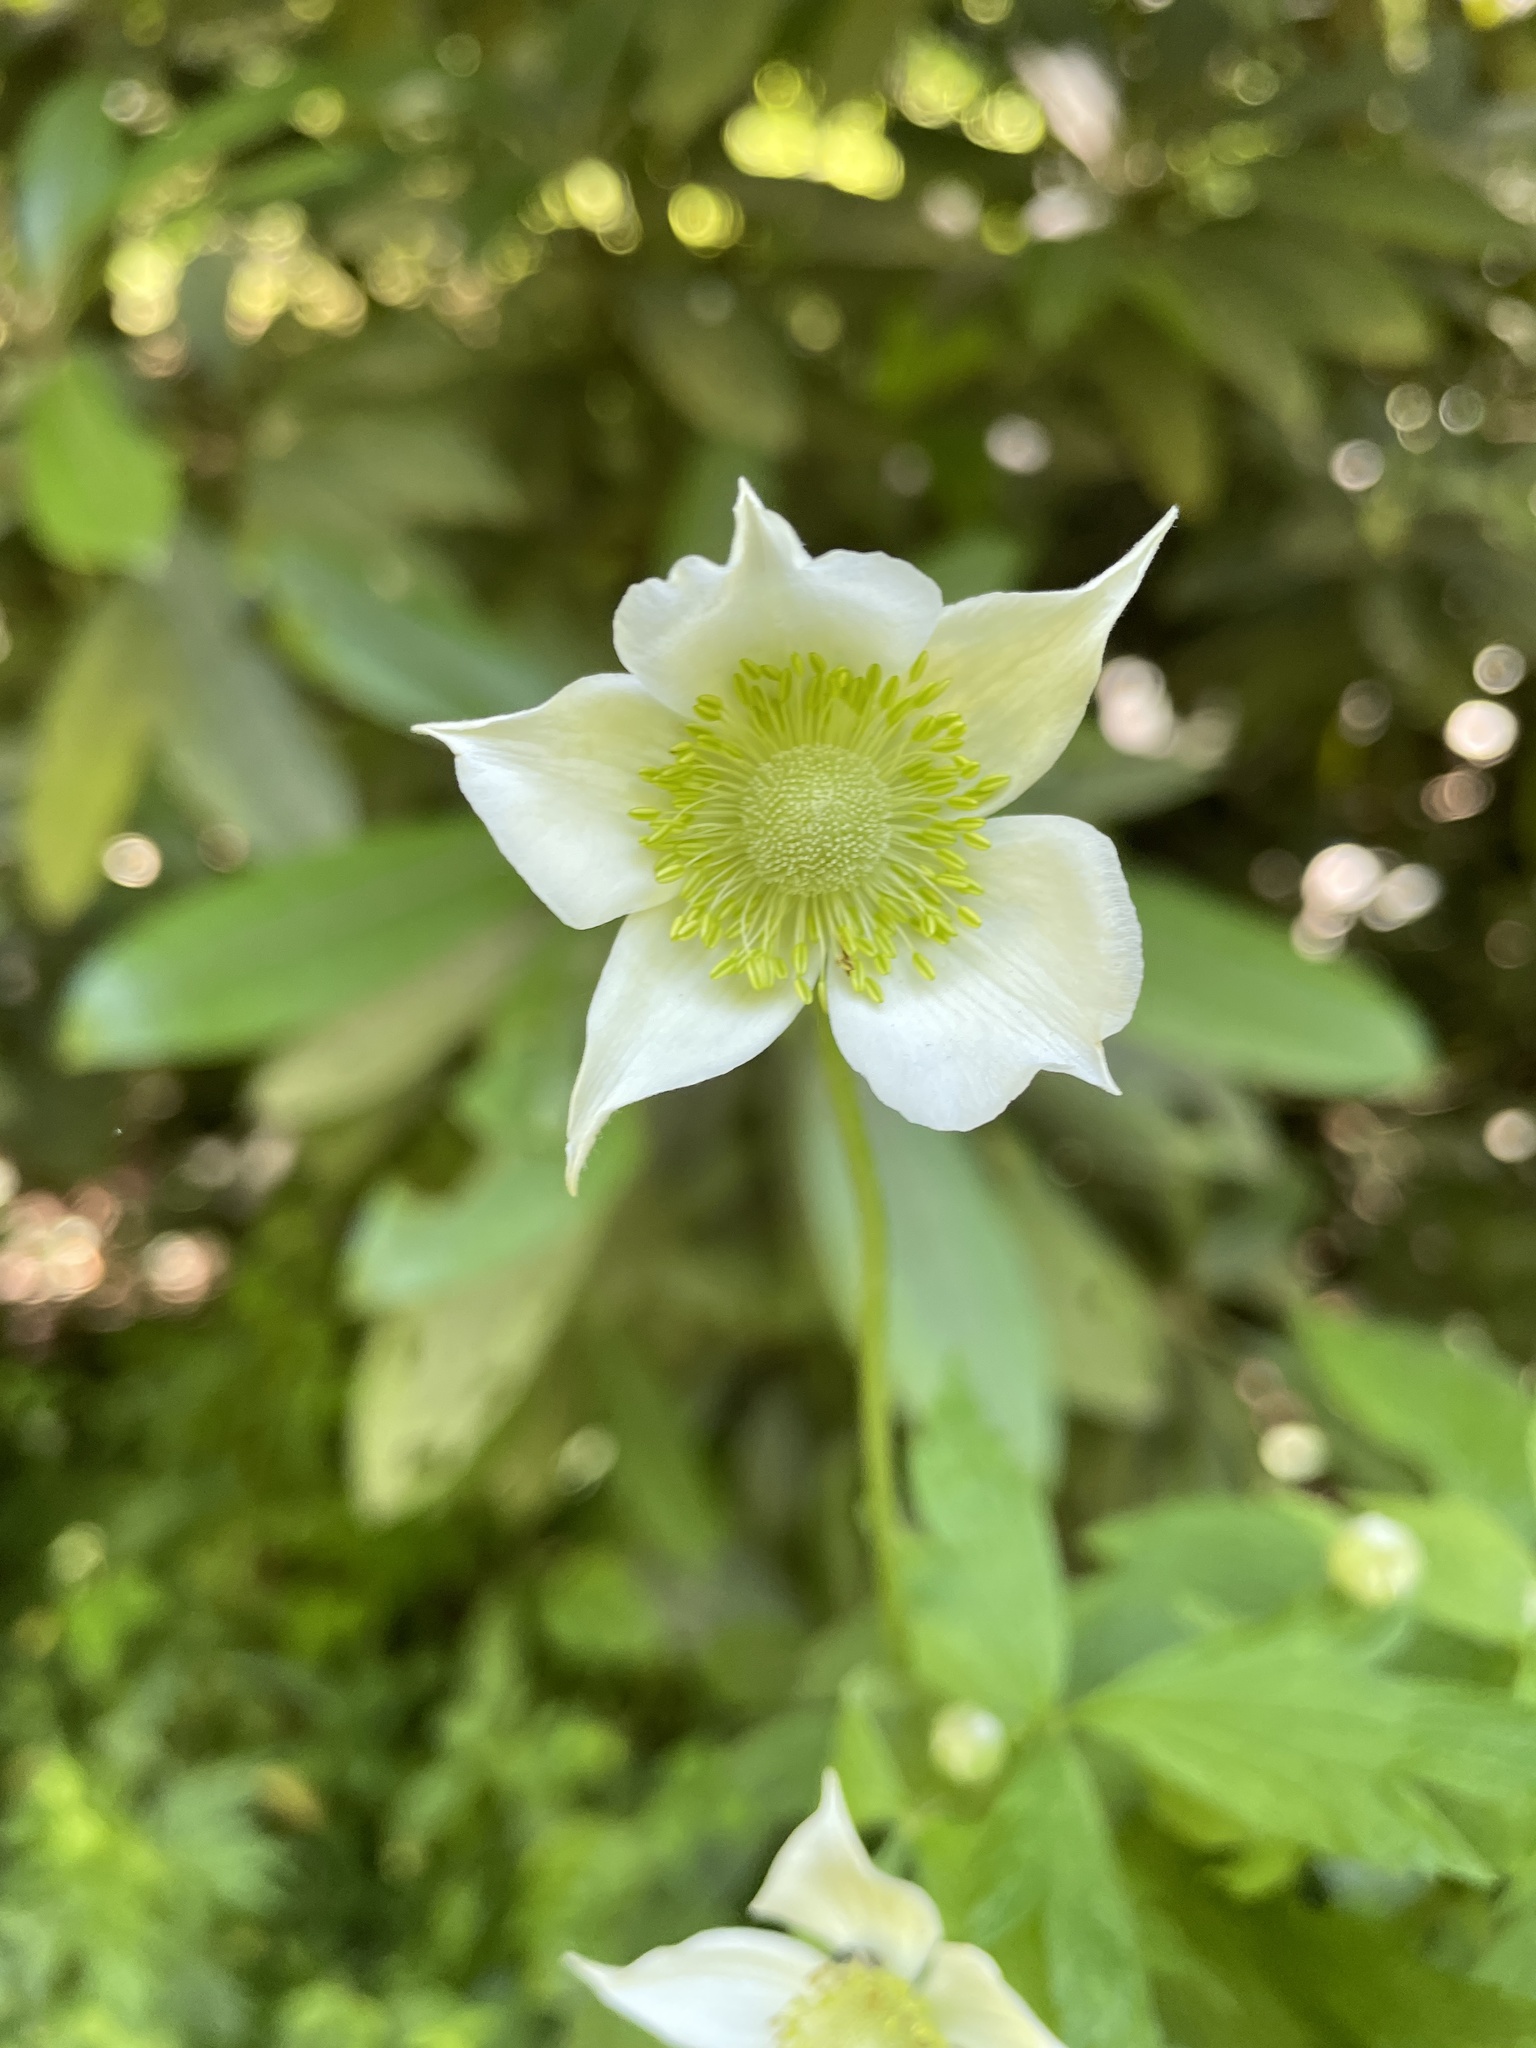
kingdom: Plantae
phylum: Tracheophyta
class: Magnoliopsida
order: Ranunculales
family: Ranunculaceae
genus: Anemone
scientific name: Anemone virginiana
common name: Tall anemone
